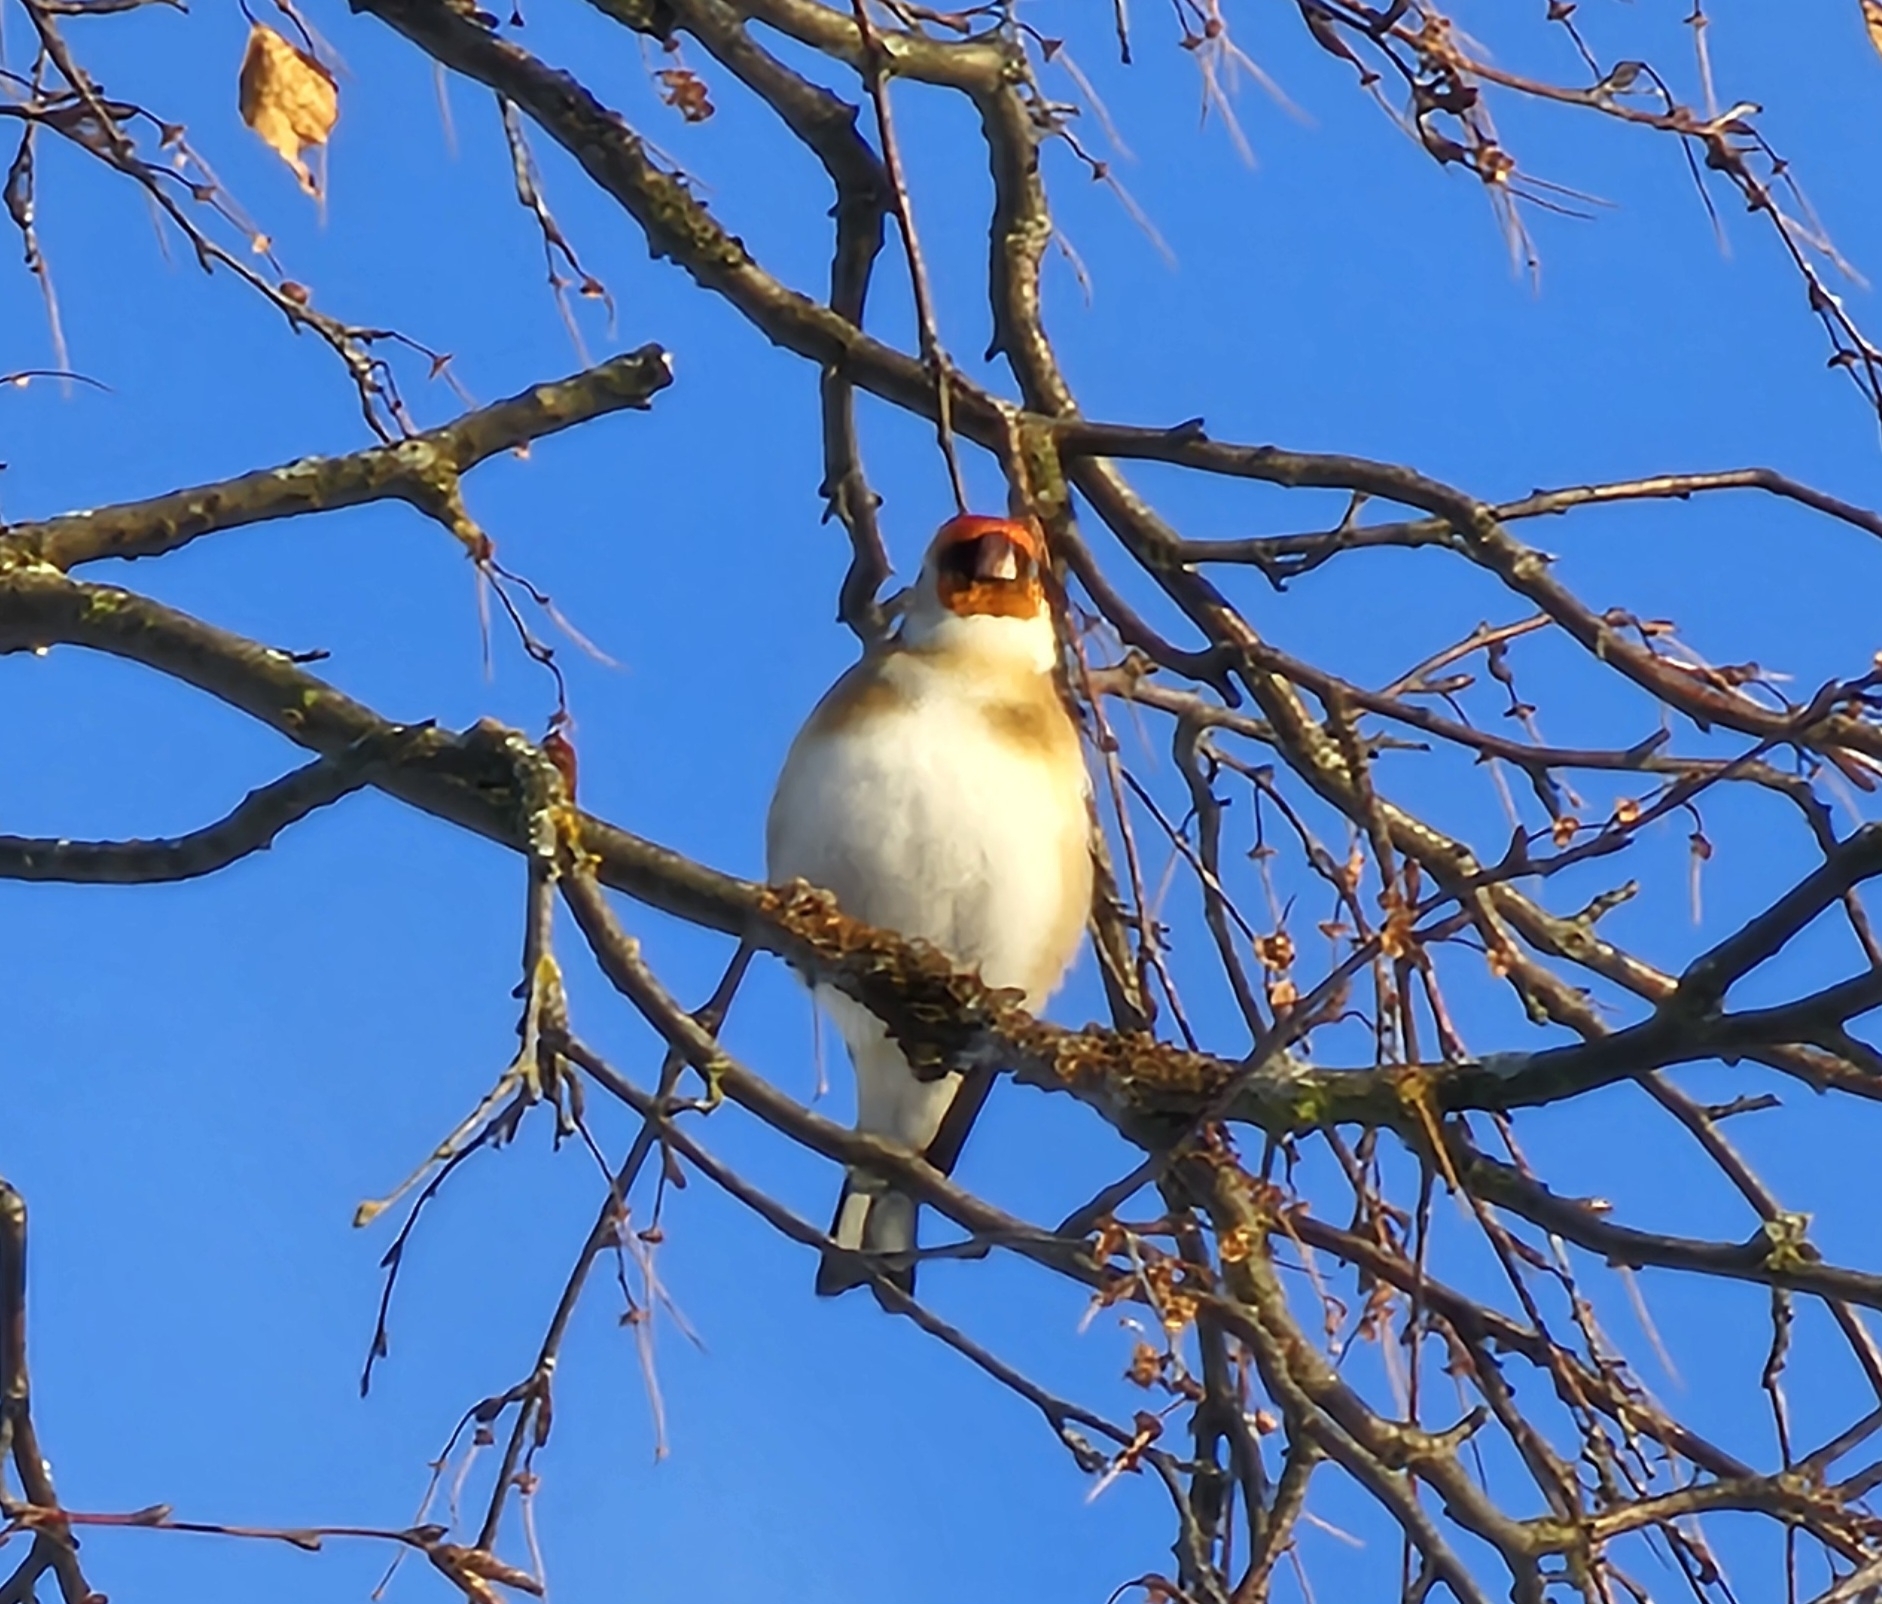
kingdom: Animalia
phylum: Chordata
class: Aves
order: Passeriformes
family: Fringillidae
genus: Carduelis
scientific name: Carduelis carduelis
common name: European goldfinch
